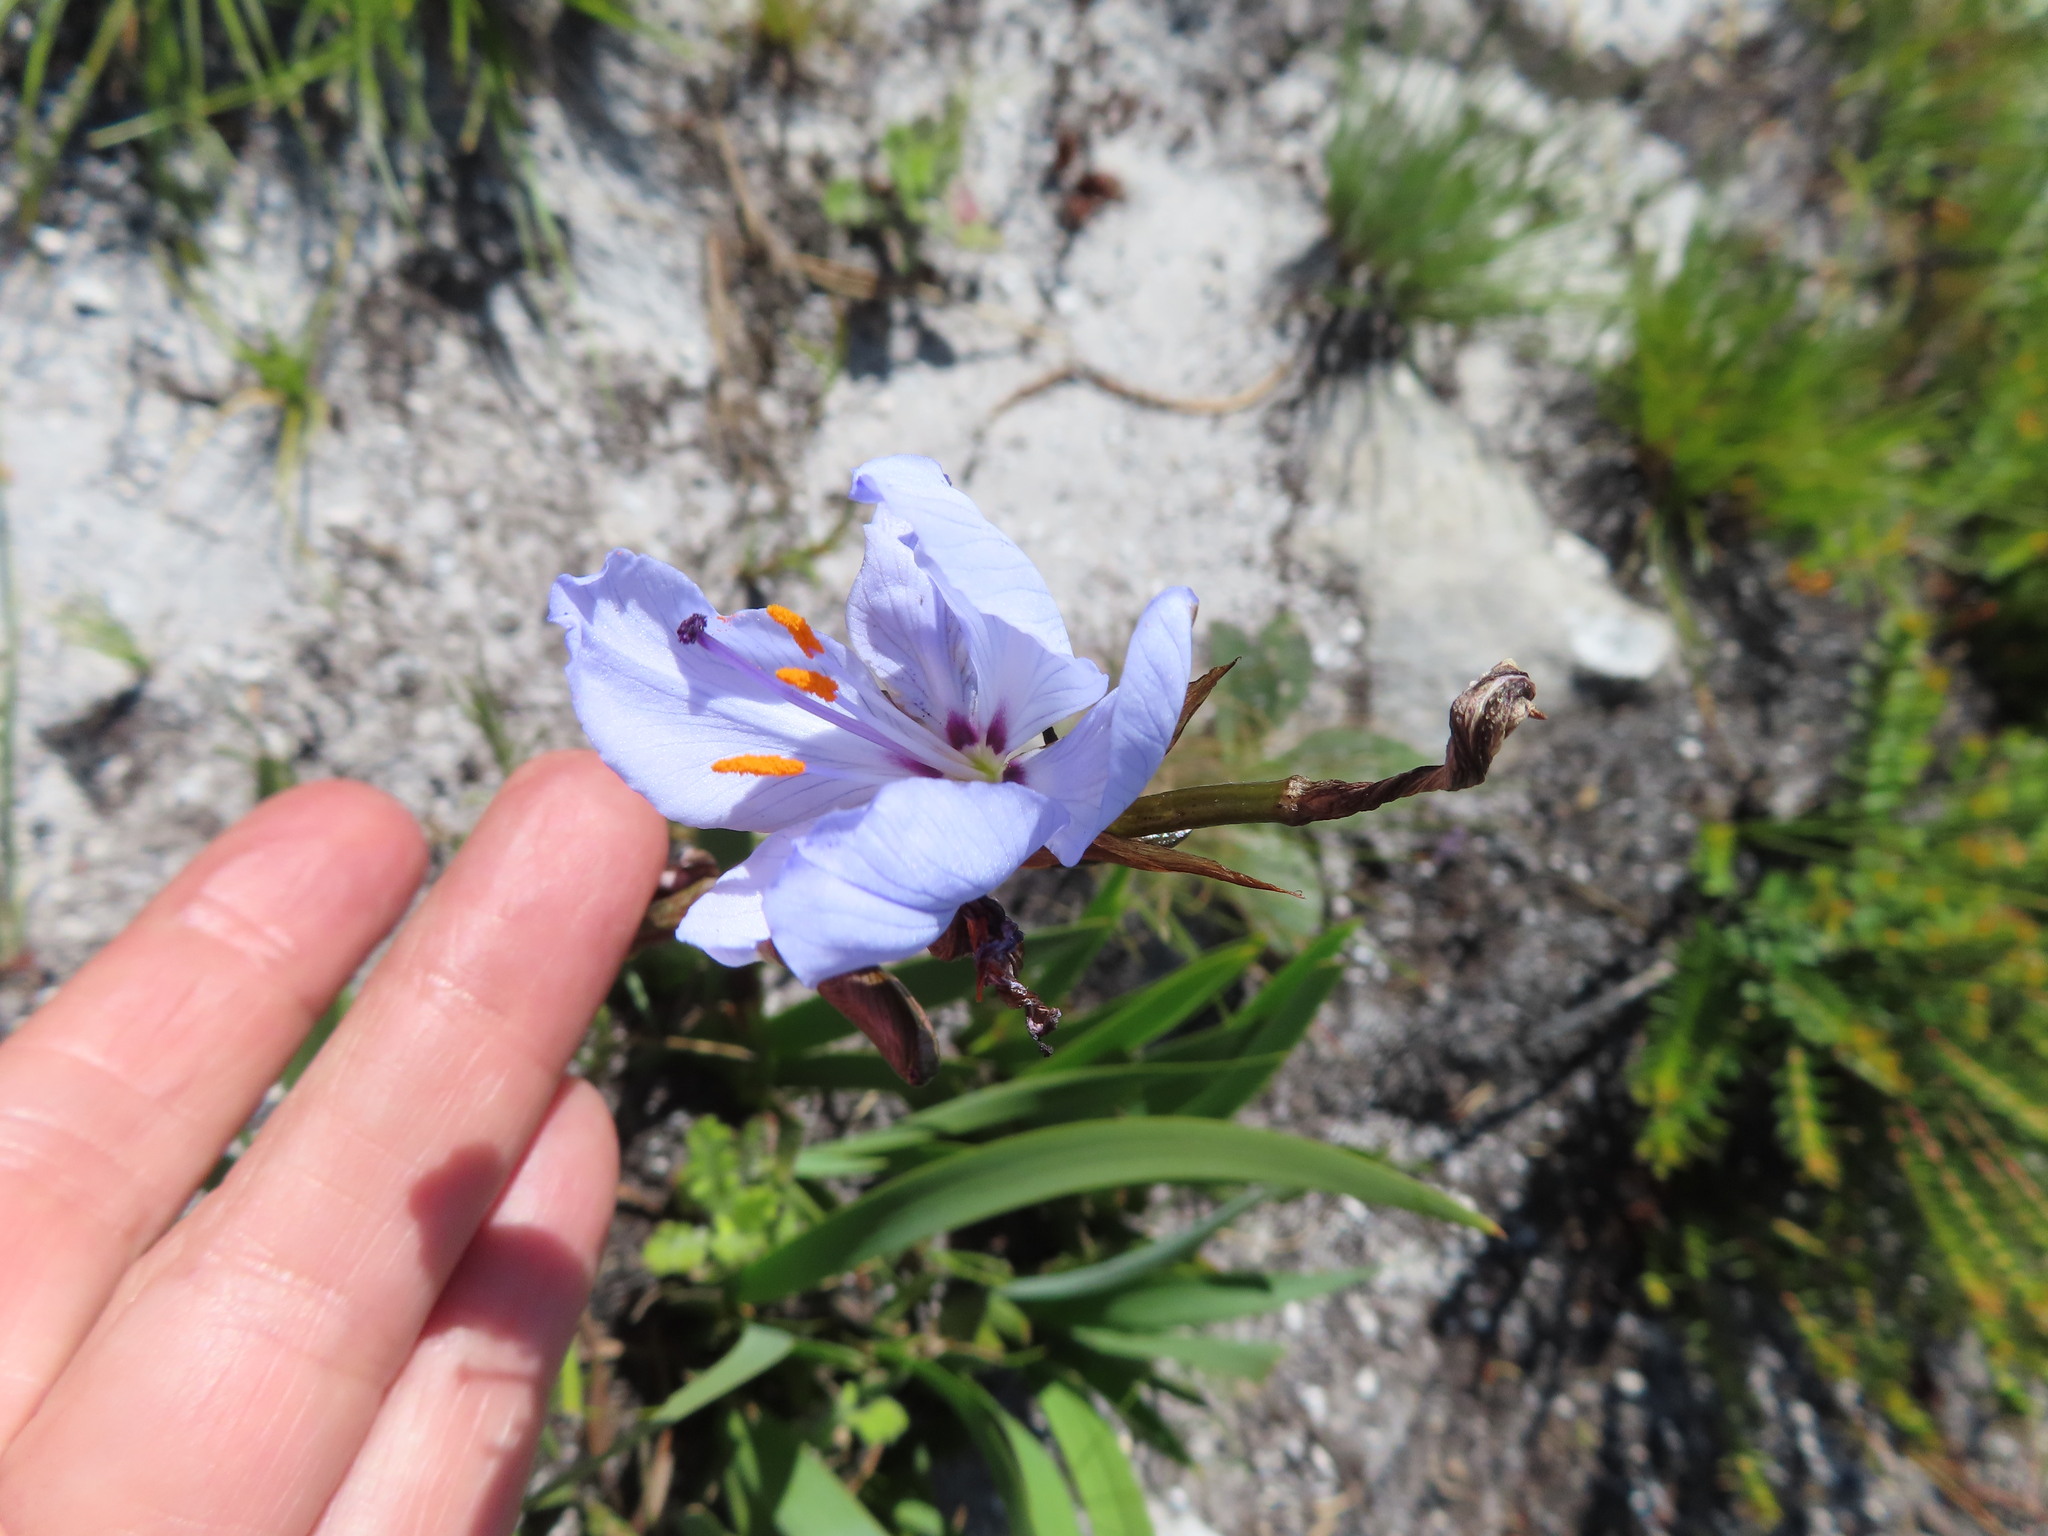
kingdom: Plantae
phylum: Tracheophyta
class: Liliopsida
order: Asparagales
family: Iridaceae
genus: Aristea
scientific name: Aristea spiralis
